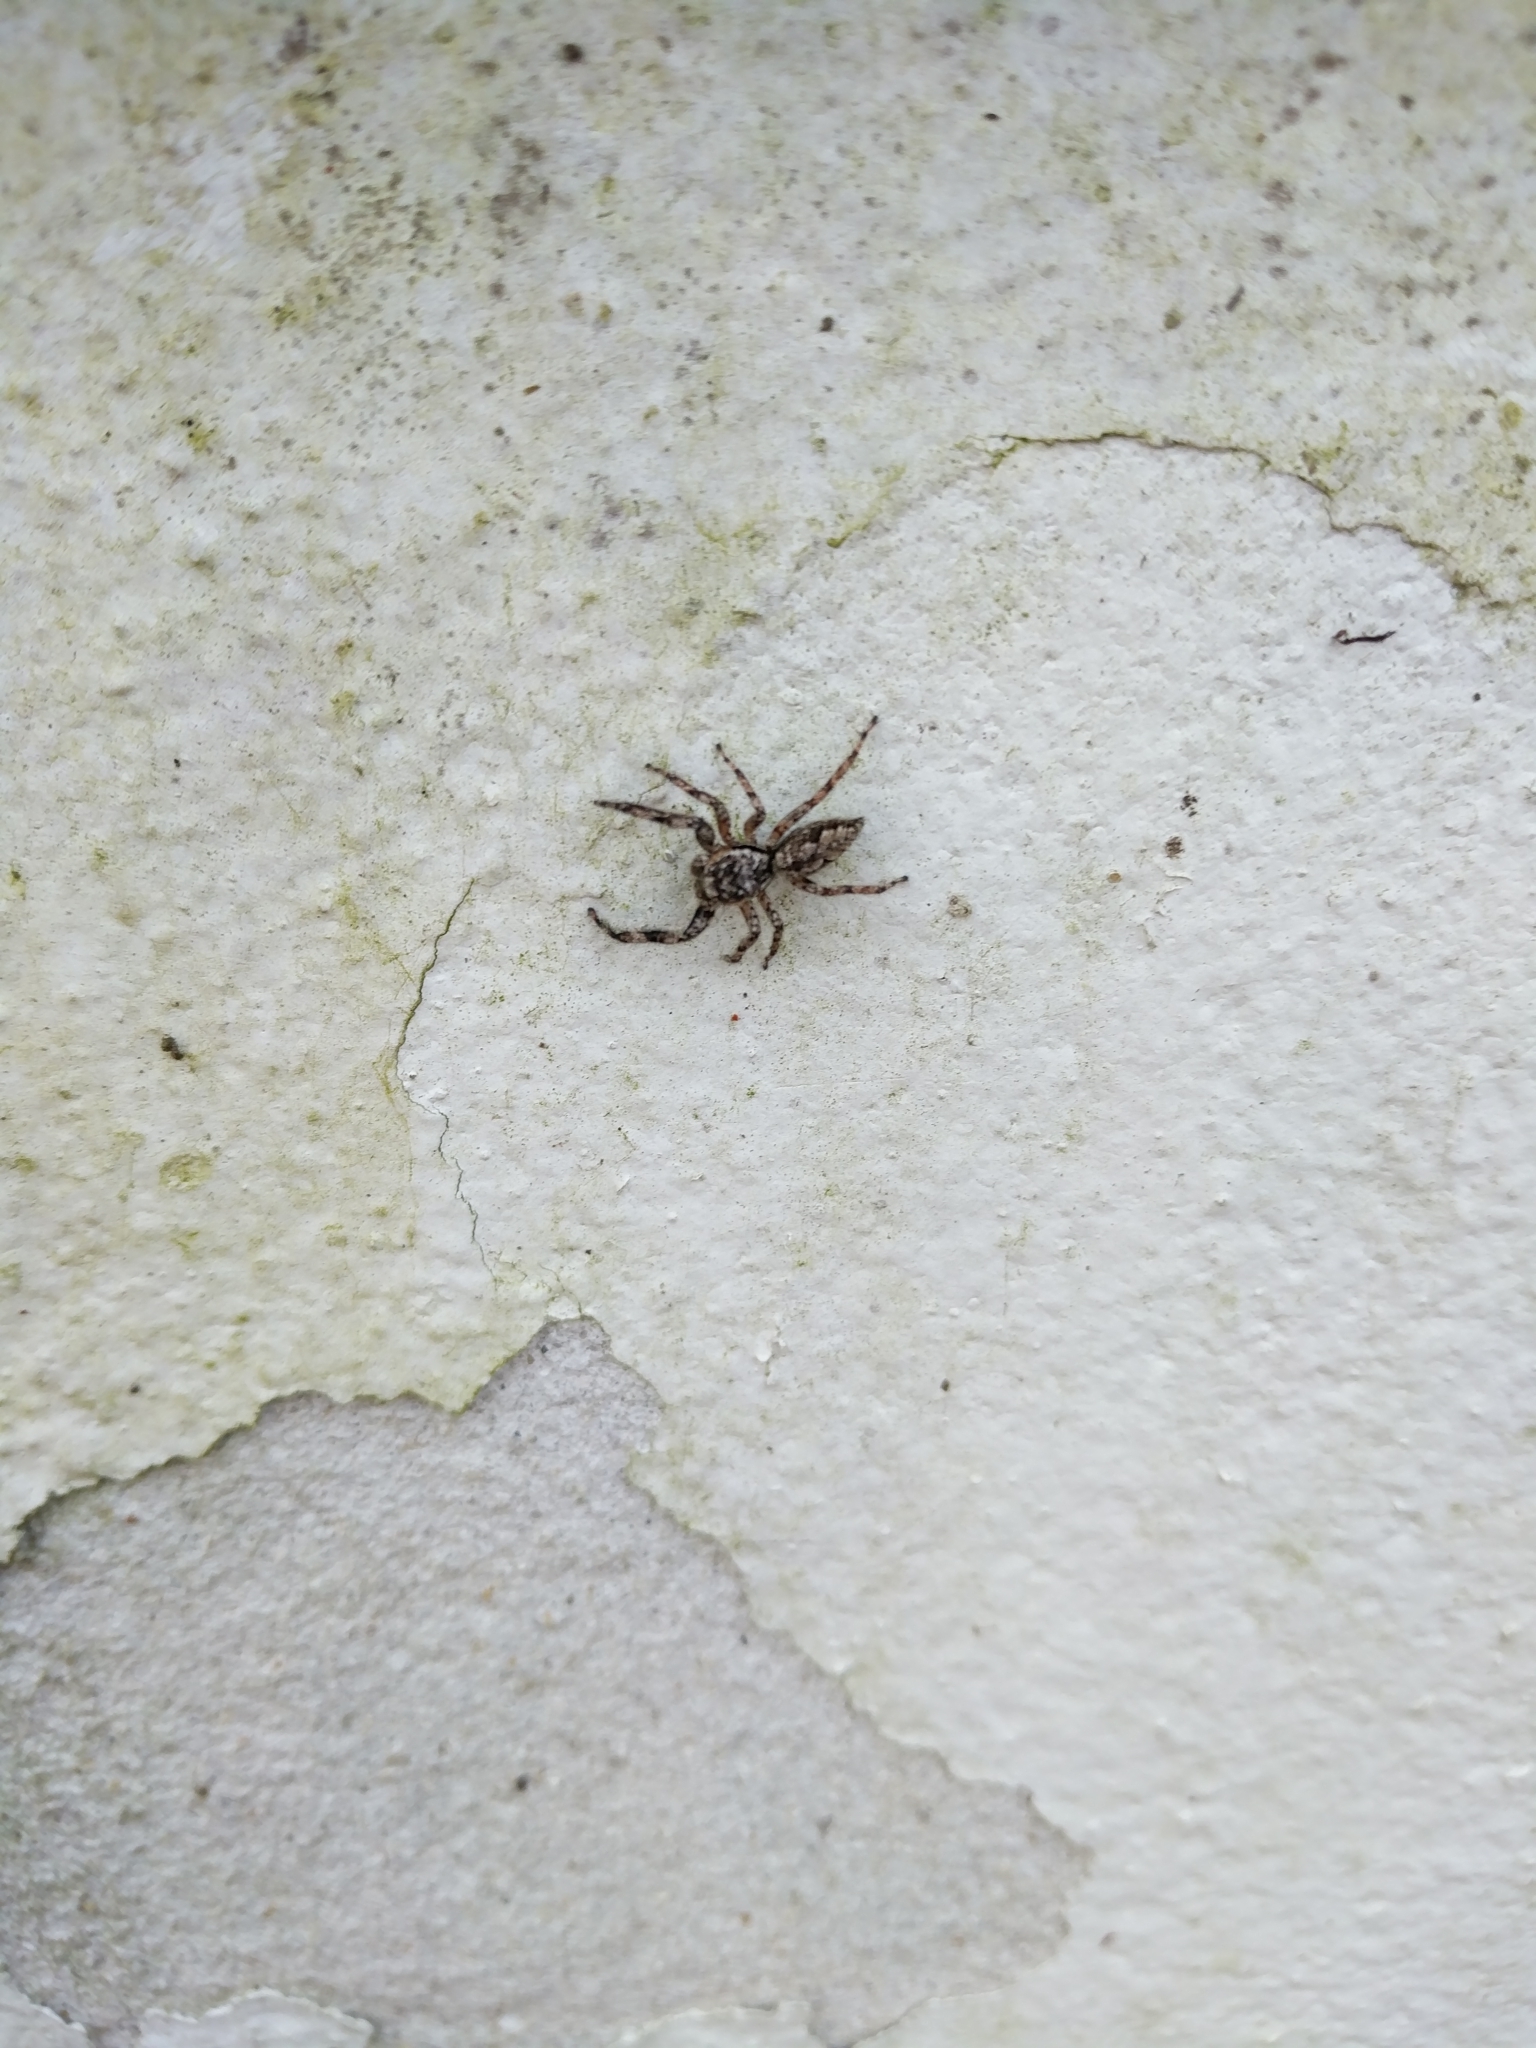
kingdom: Animalia
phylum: Arthropoda
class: Arachnida
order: Araneae
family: Salticidae
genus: Platycryptus
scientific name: Platycryptus undatus
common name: Tan jumping spider
